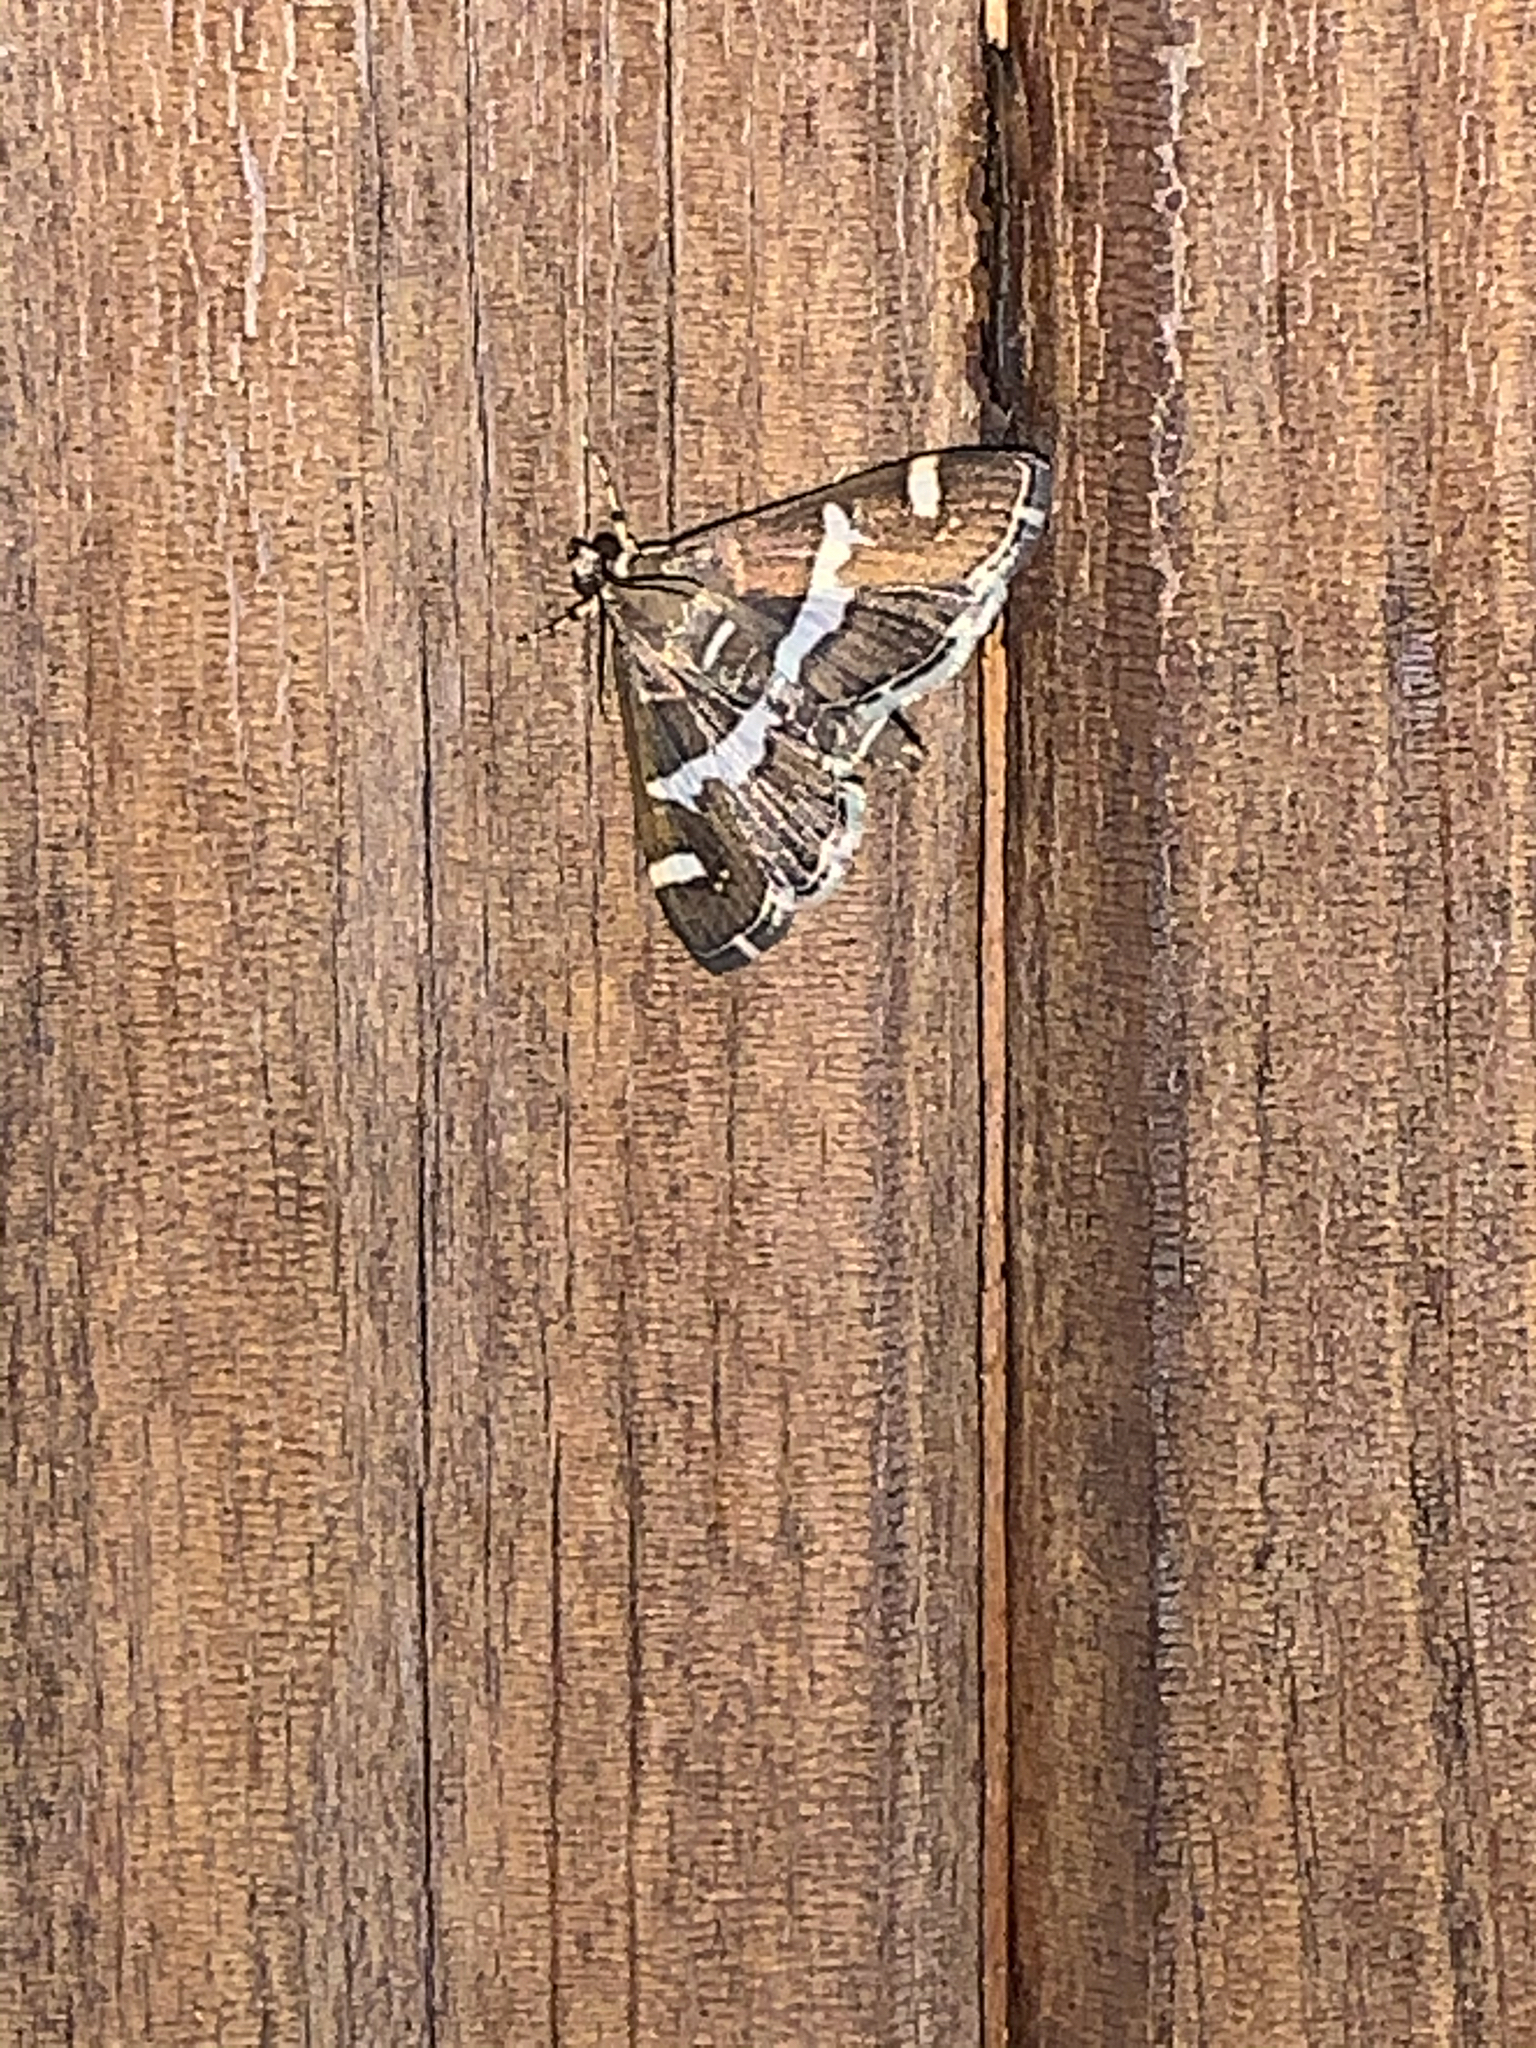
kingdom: Animalia
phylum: Arthropoda
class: Insecta
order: Lepidoptera
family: Crambidae
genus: Spoladea
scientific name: Spoladea recurvalis
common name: Beet webworm moth
